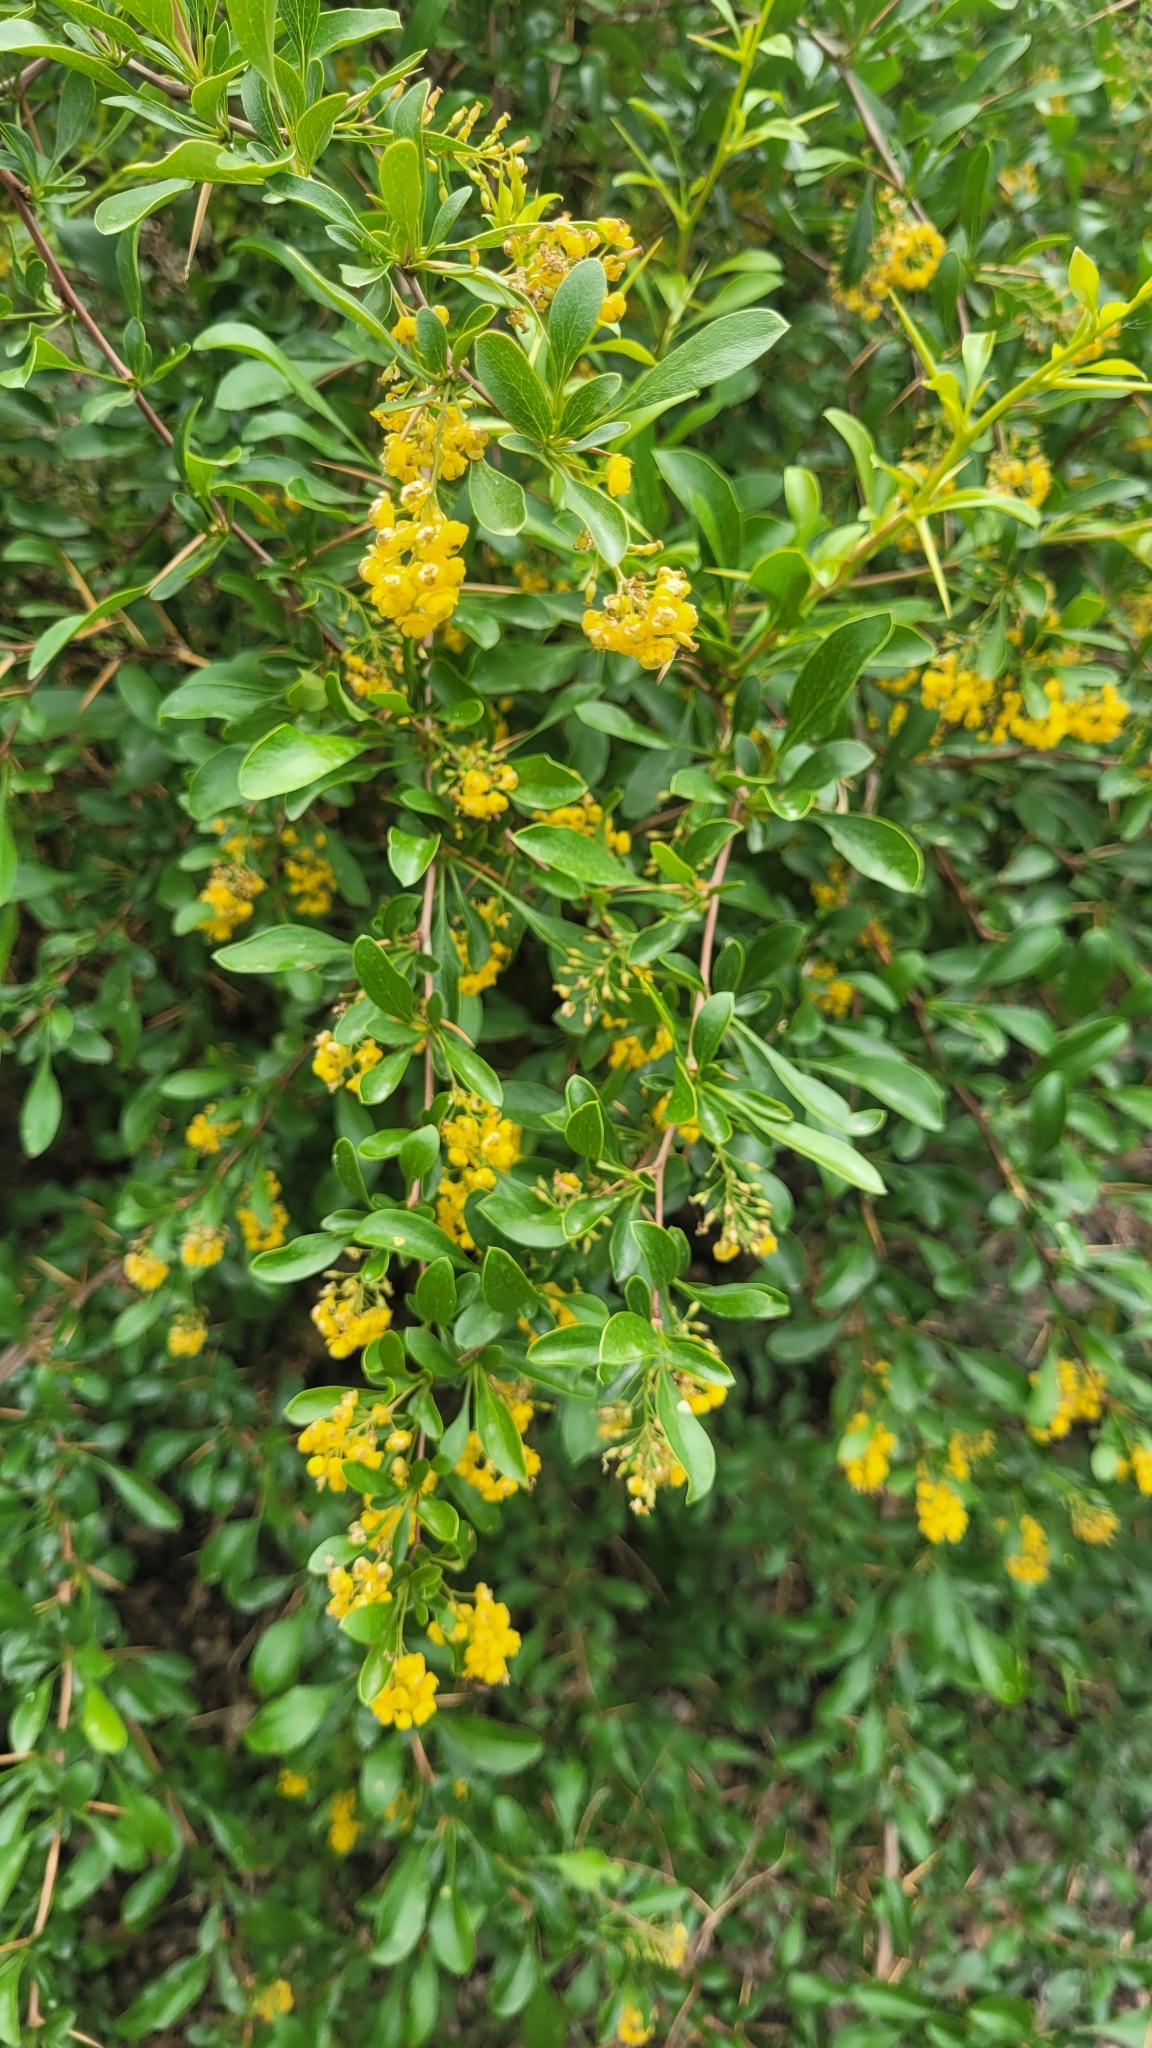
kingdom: Plantae
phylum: Tracheophyta
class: Magnoliopsida
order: Ranunculales
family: Berberidaceae
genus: Berberis
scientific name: Berberis integerrima
